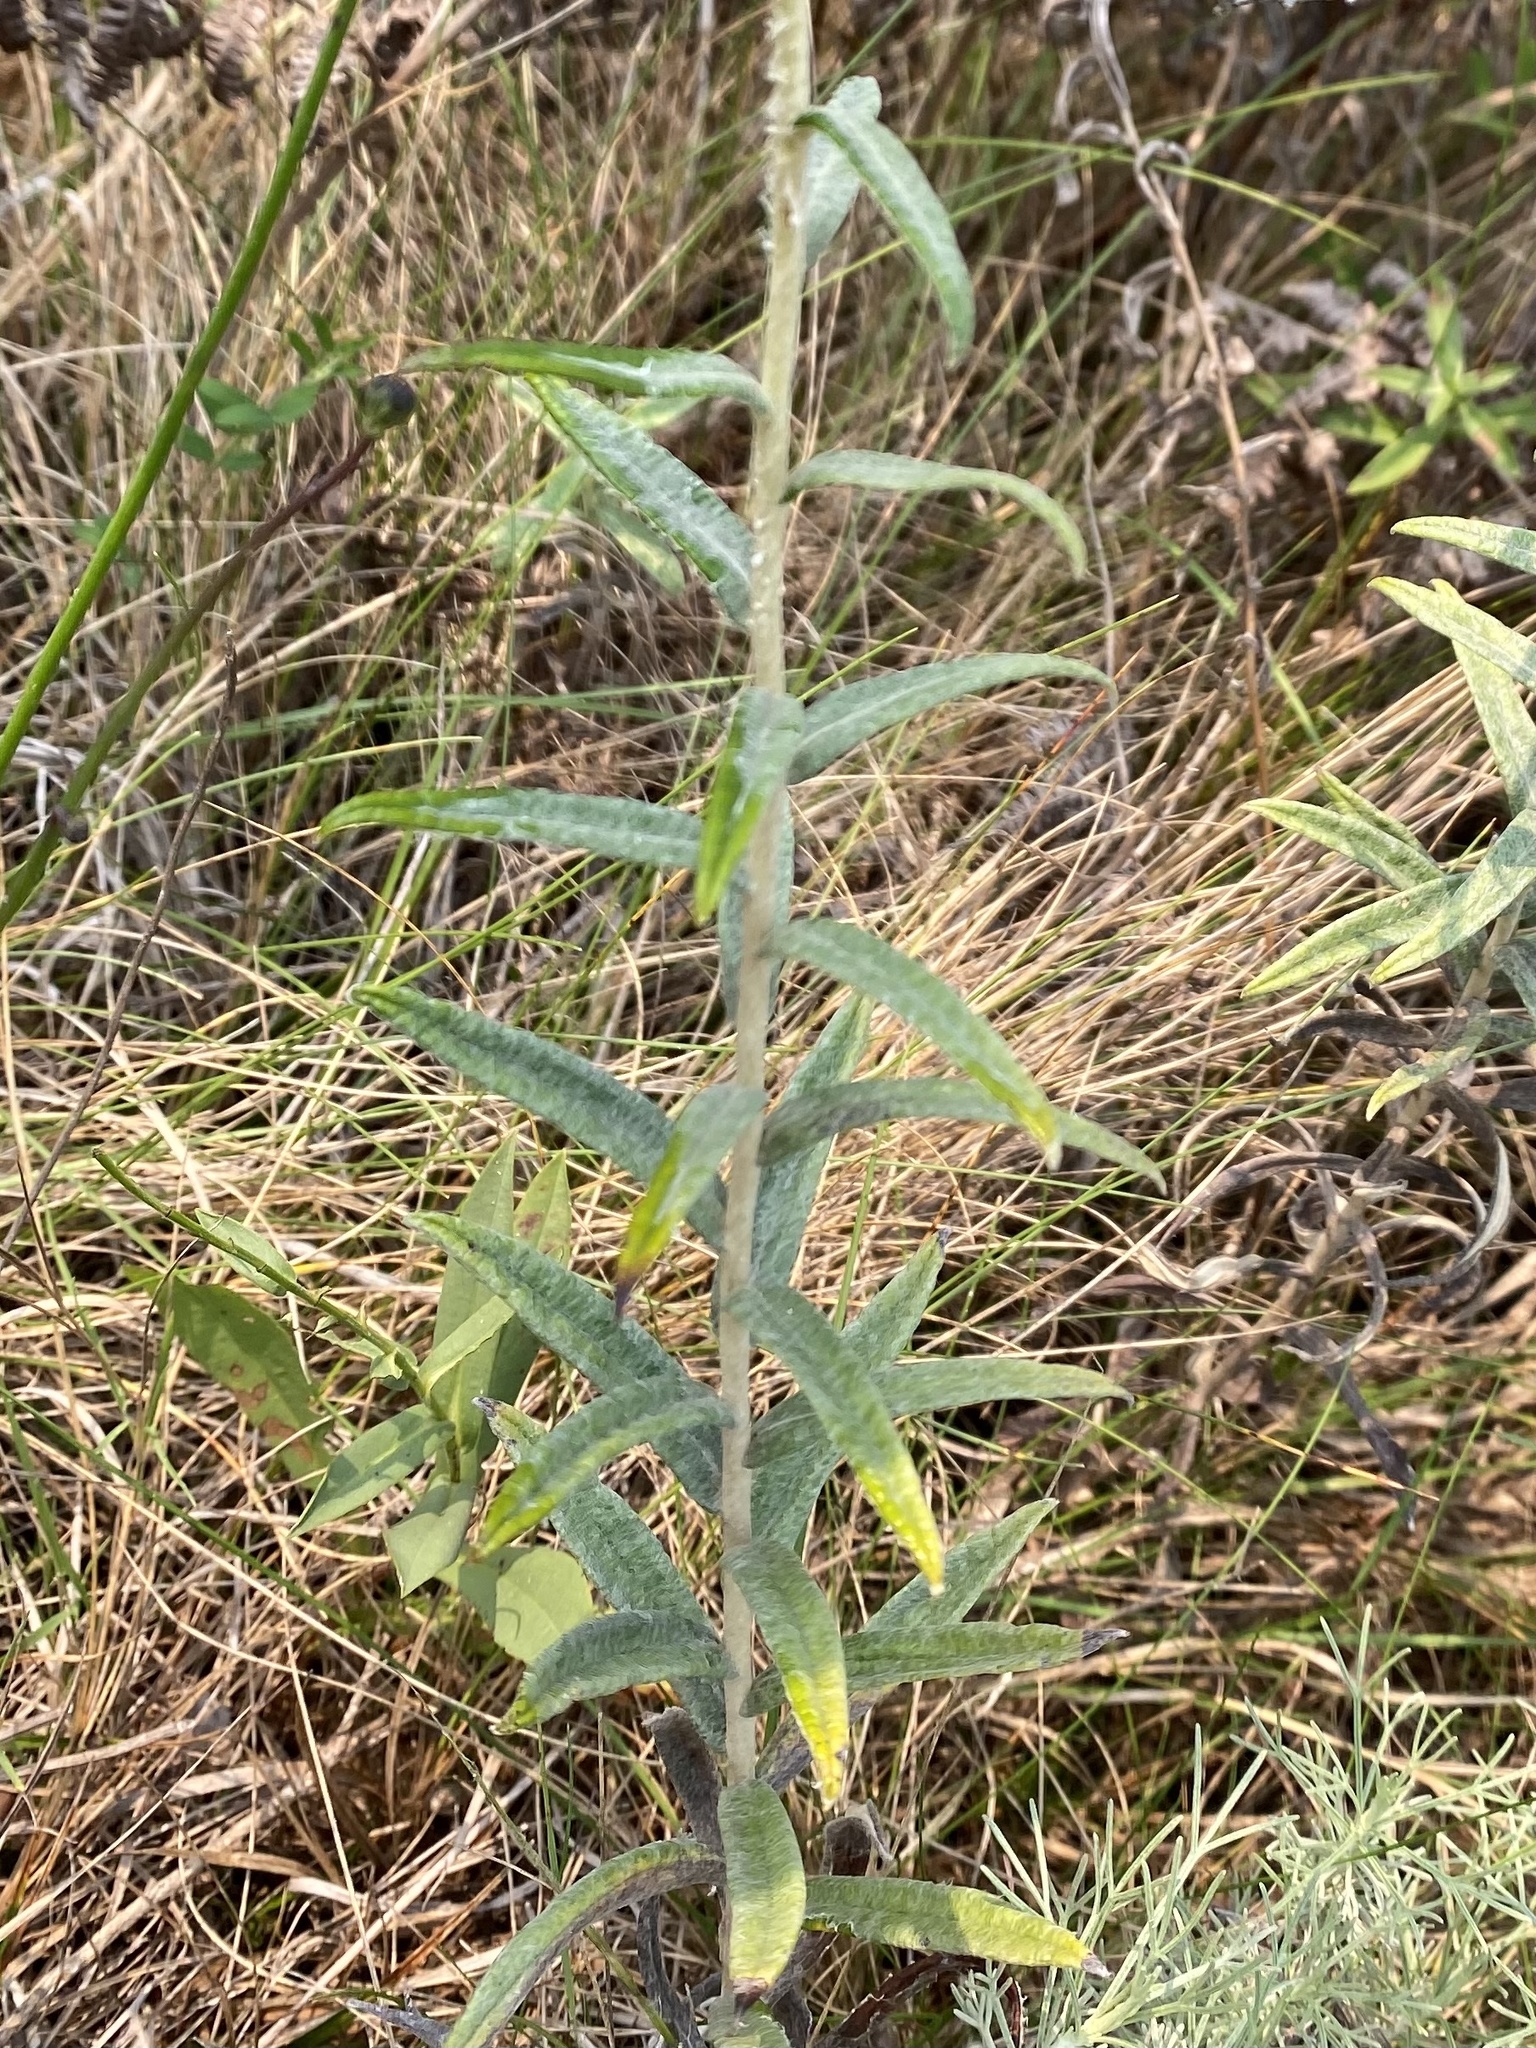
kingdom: Plantae
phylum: Tracheophyta
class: Magnoliopsida
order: Asterales
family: Asteraceae
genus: Anaphalis
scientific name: Anaphalis margaritacea
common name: Pearly everlasting
